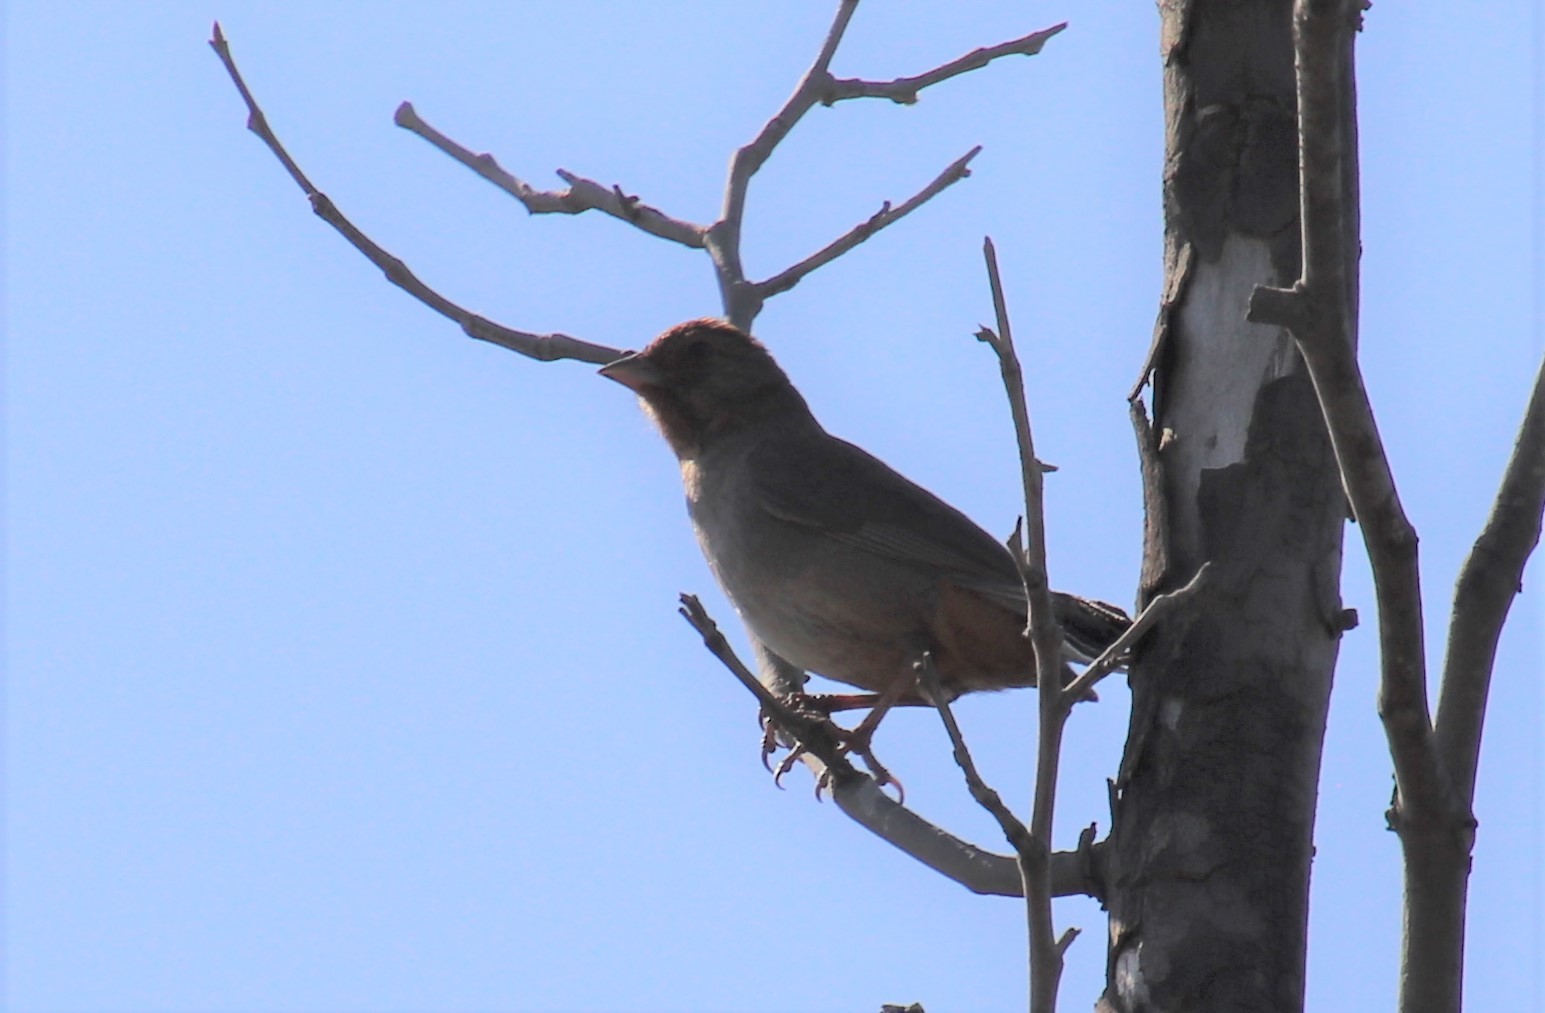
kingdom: Animalia
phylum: Chordata
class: Aves
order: Passeriformes
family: Passerellidae
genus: Melozone
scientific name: Melozone crissalis
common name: California towhee
